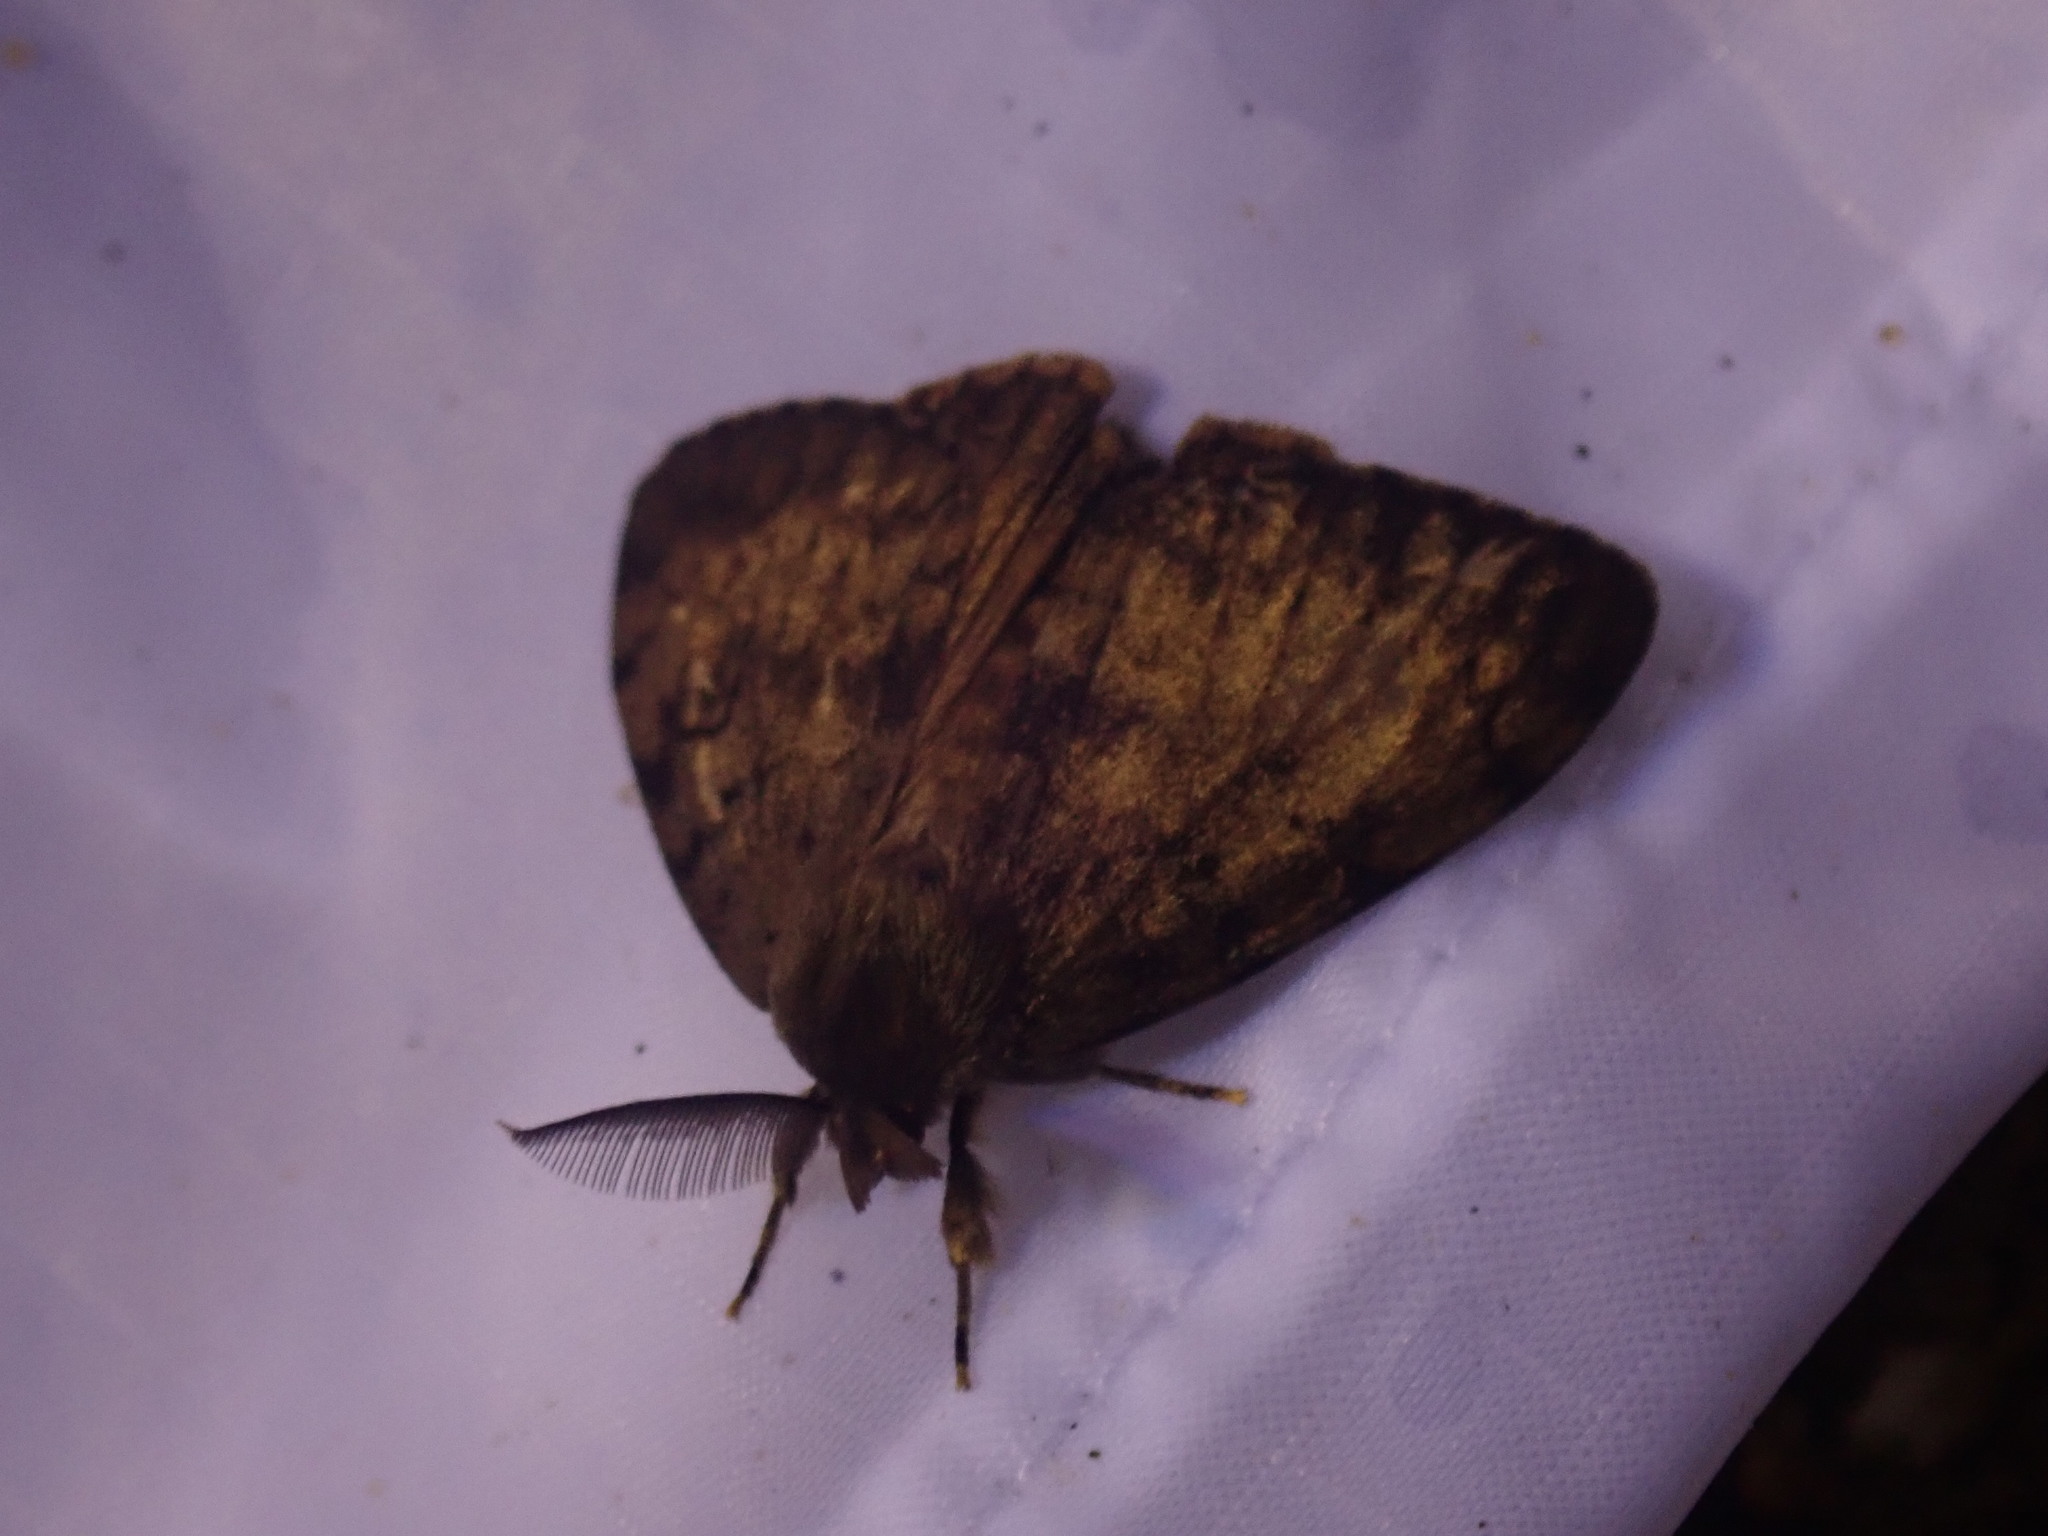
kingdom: Animalia
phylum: Arthropoda
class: Insecta
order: Lepidoptera
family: Erebidae
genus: Lymantria
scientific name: Lymantria dispar
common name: Gypsy moth
